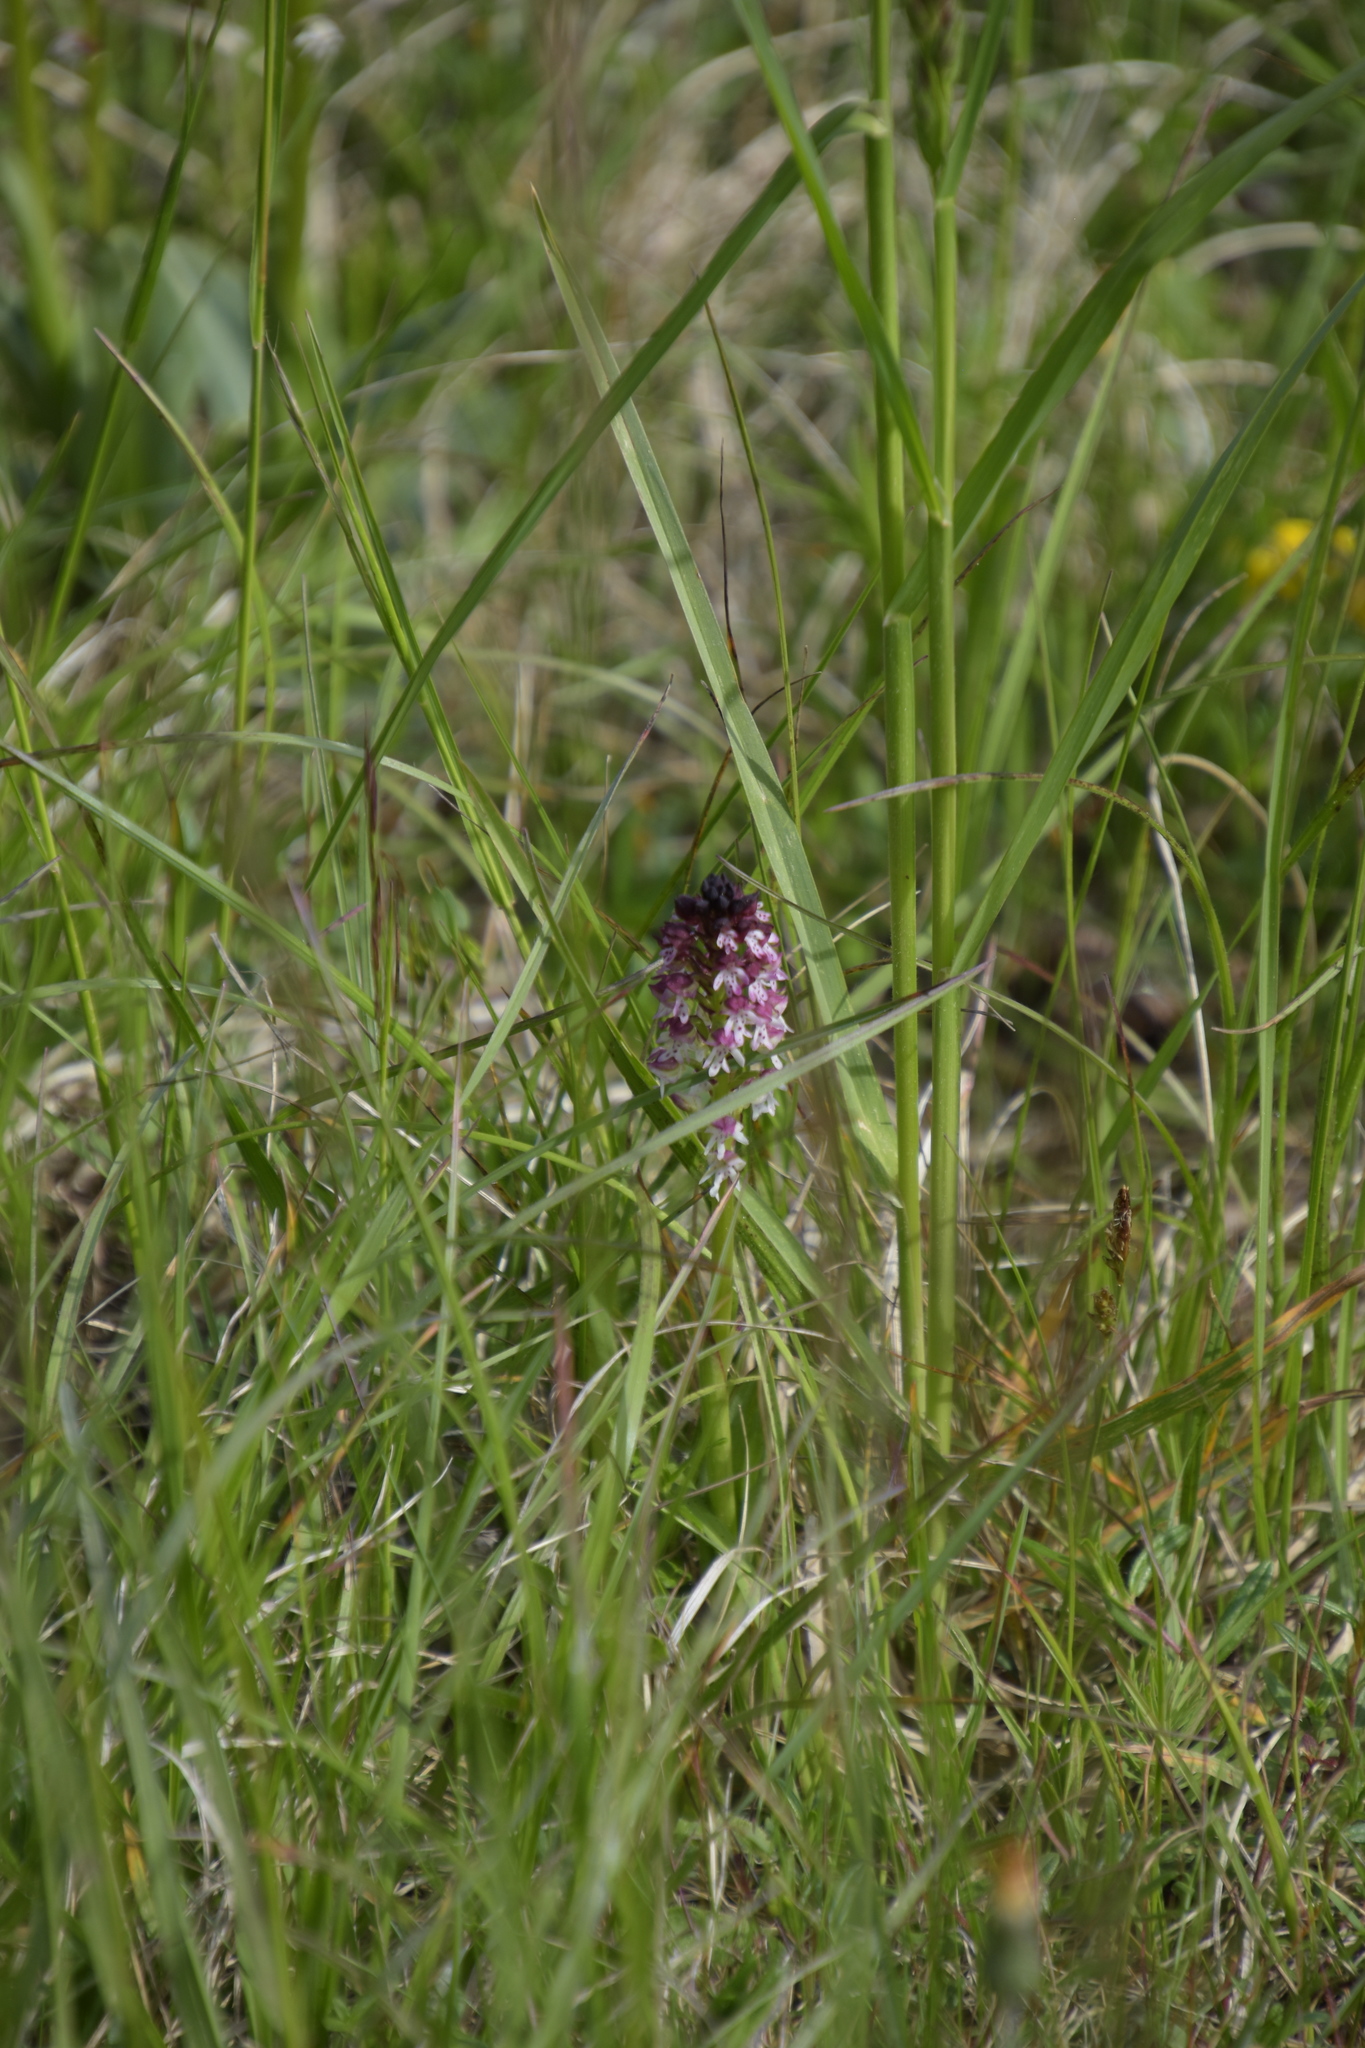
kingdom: Plantae
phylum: Tracheophyta
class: Liliopsida
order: Asparagales
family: Orchidaceae
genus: Neotinea
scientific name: Neotinea ustulata
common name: Burnt orchid
